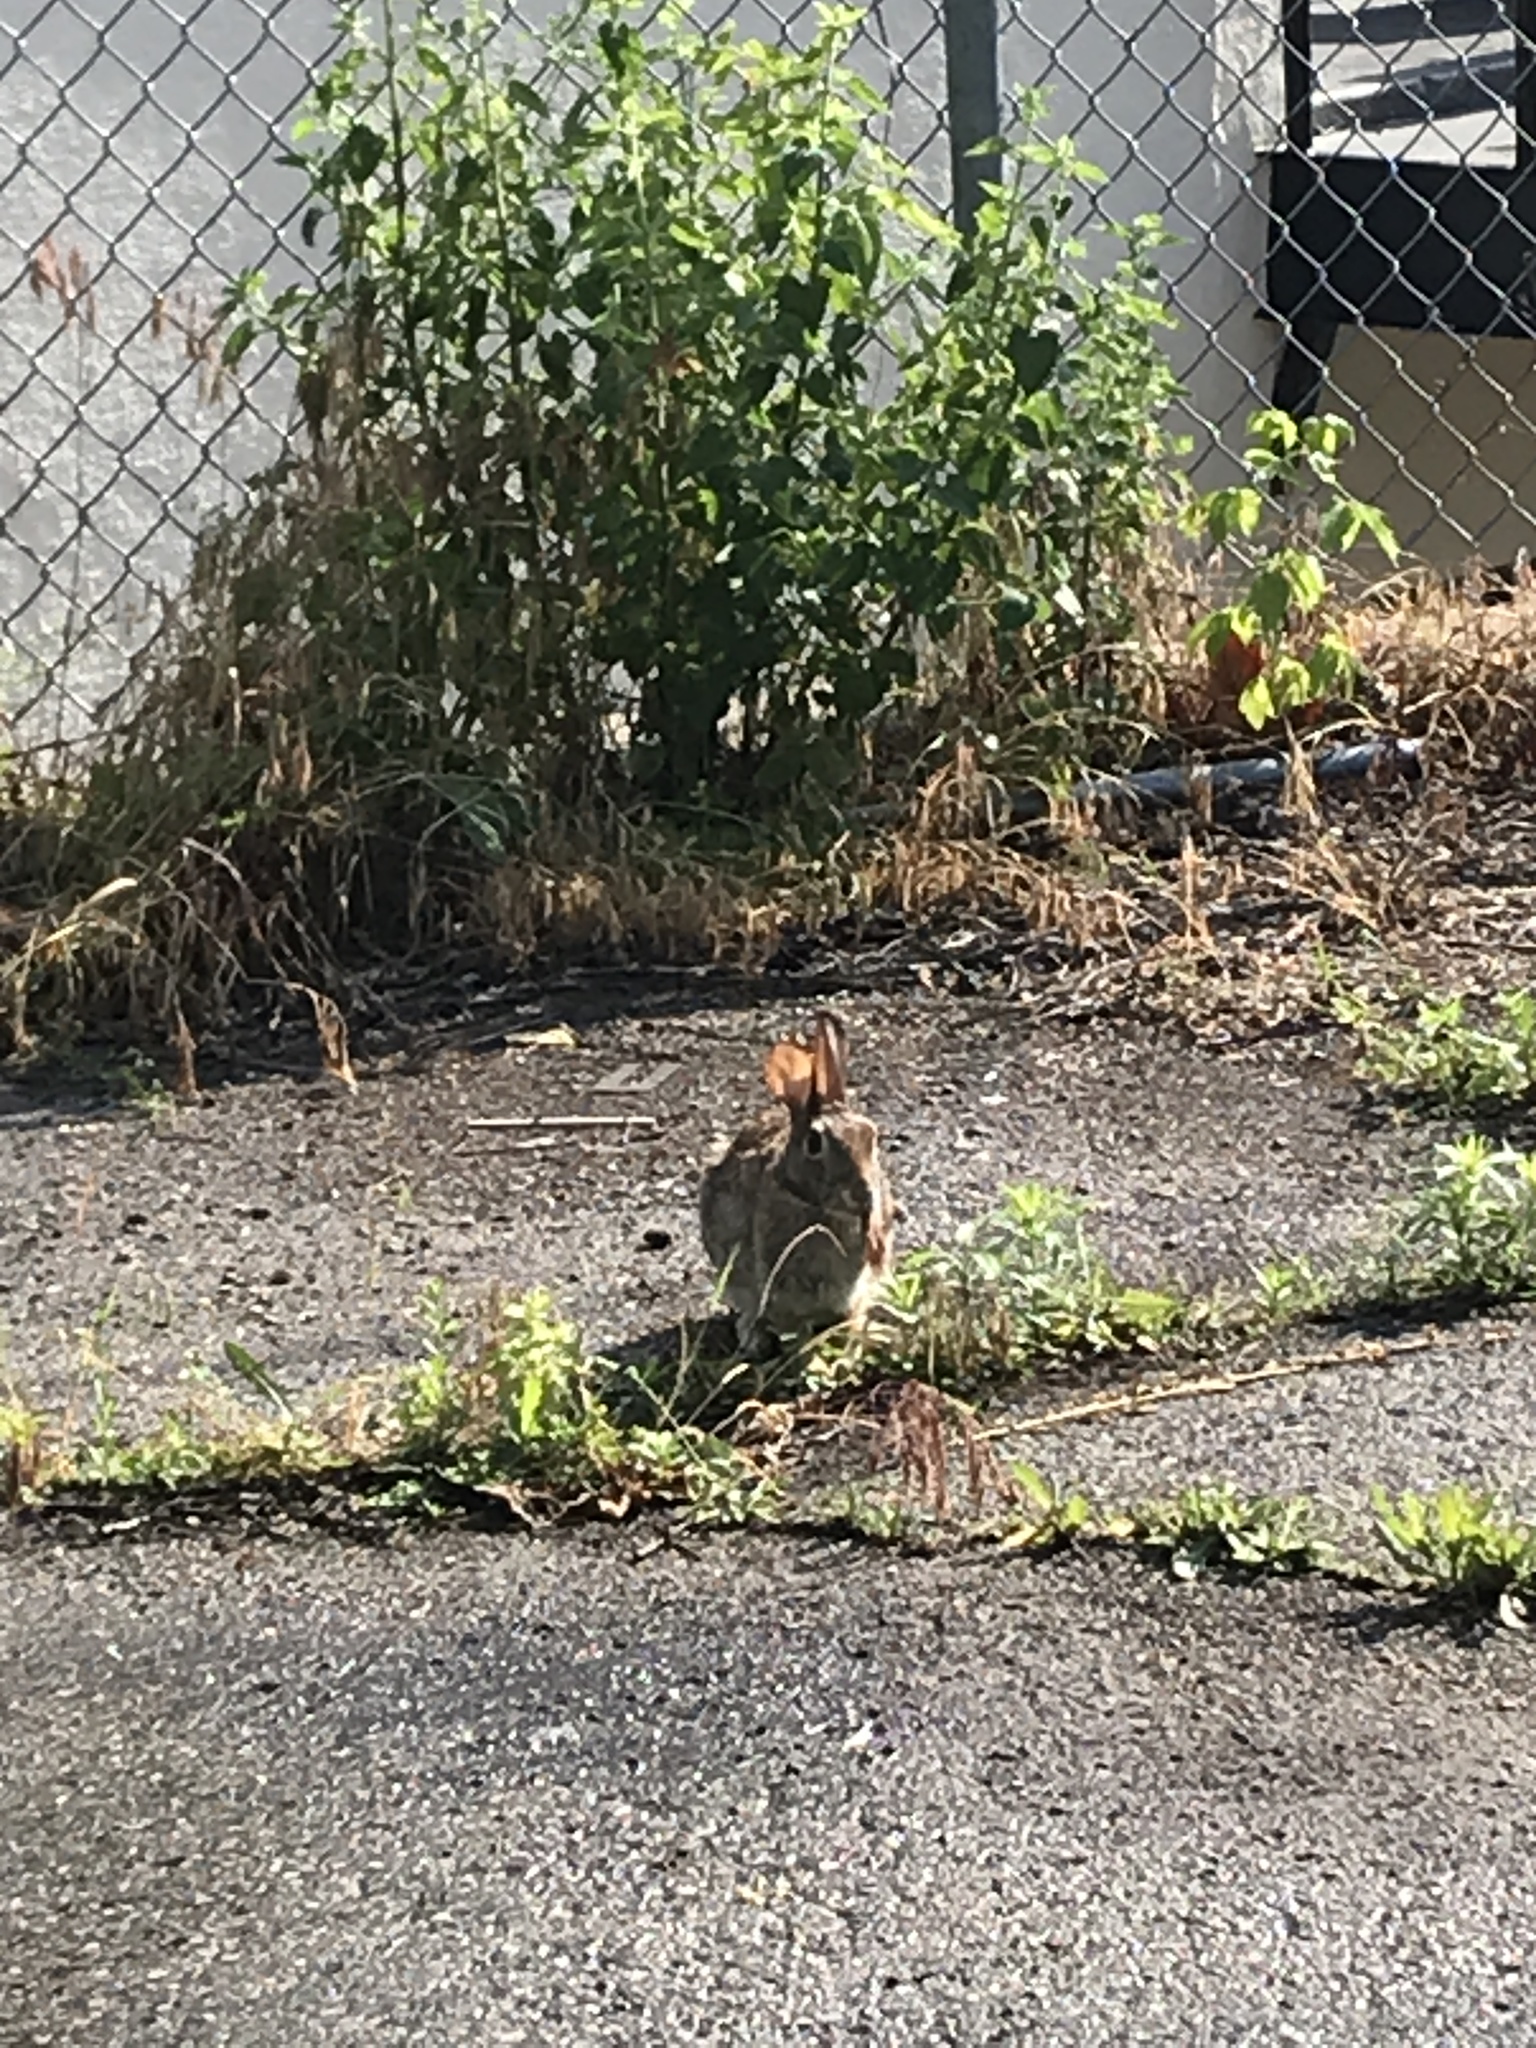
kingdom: Animalia
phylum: Chordata
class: Mammalia
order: Lagomorpha
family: Leporidae
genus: Sylvilagus
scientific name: Sylvilagus floridanus
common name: Eastern cottontail
